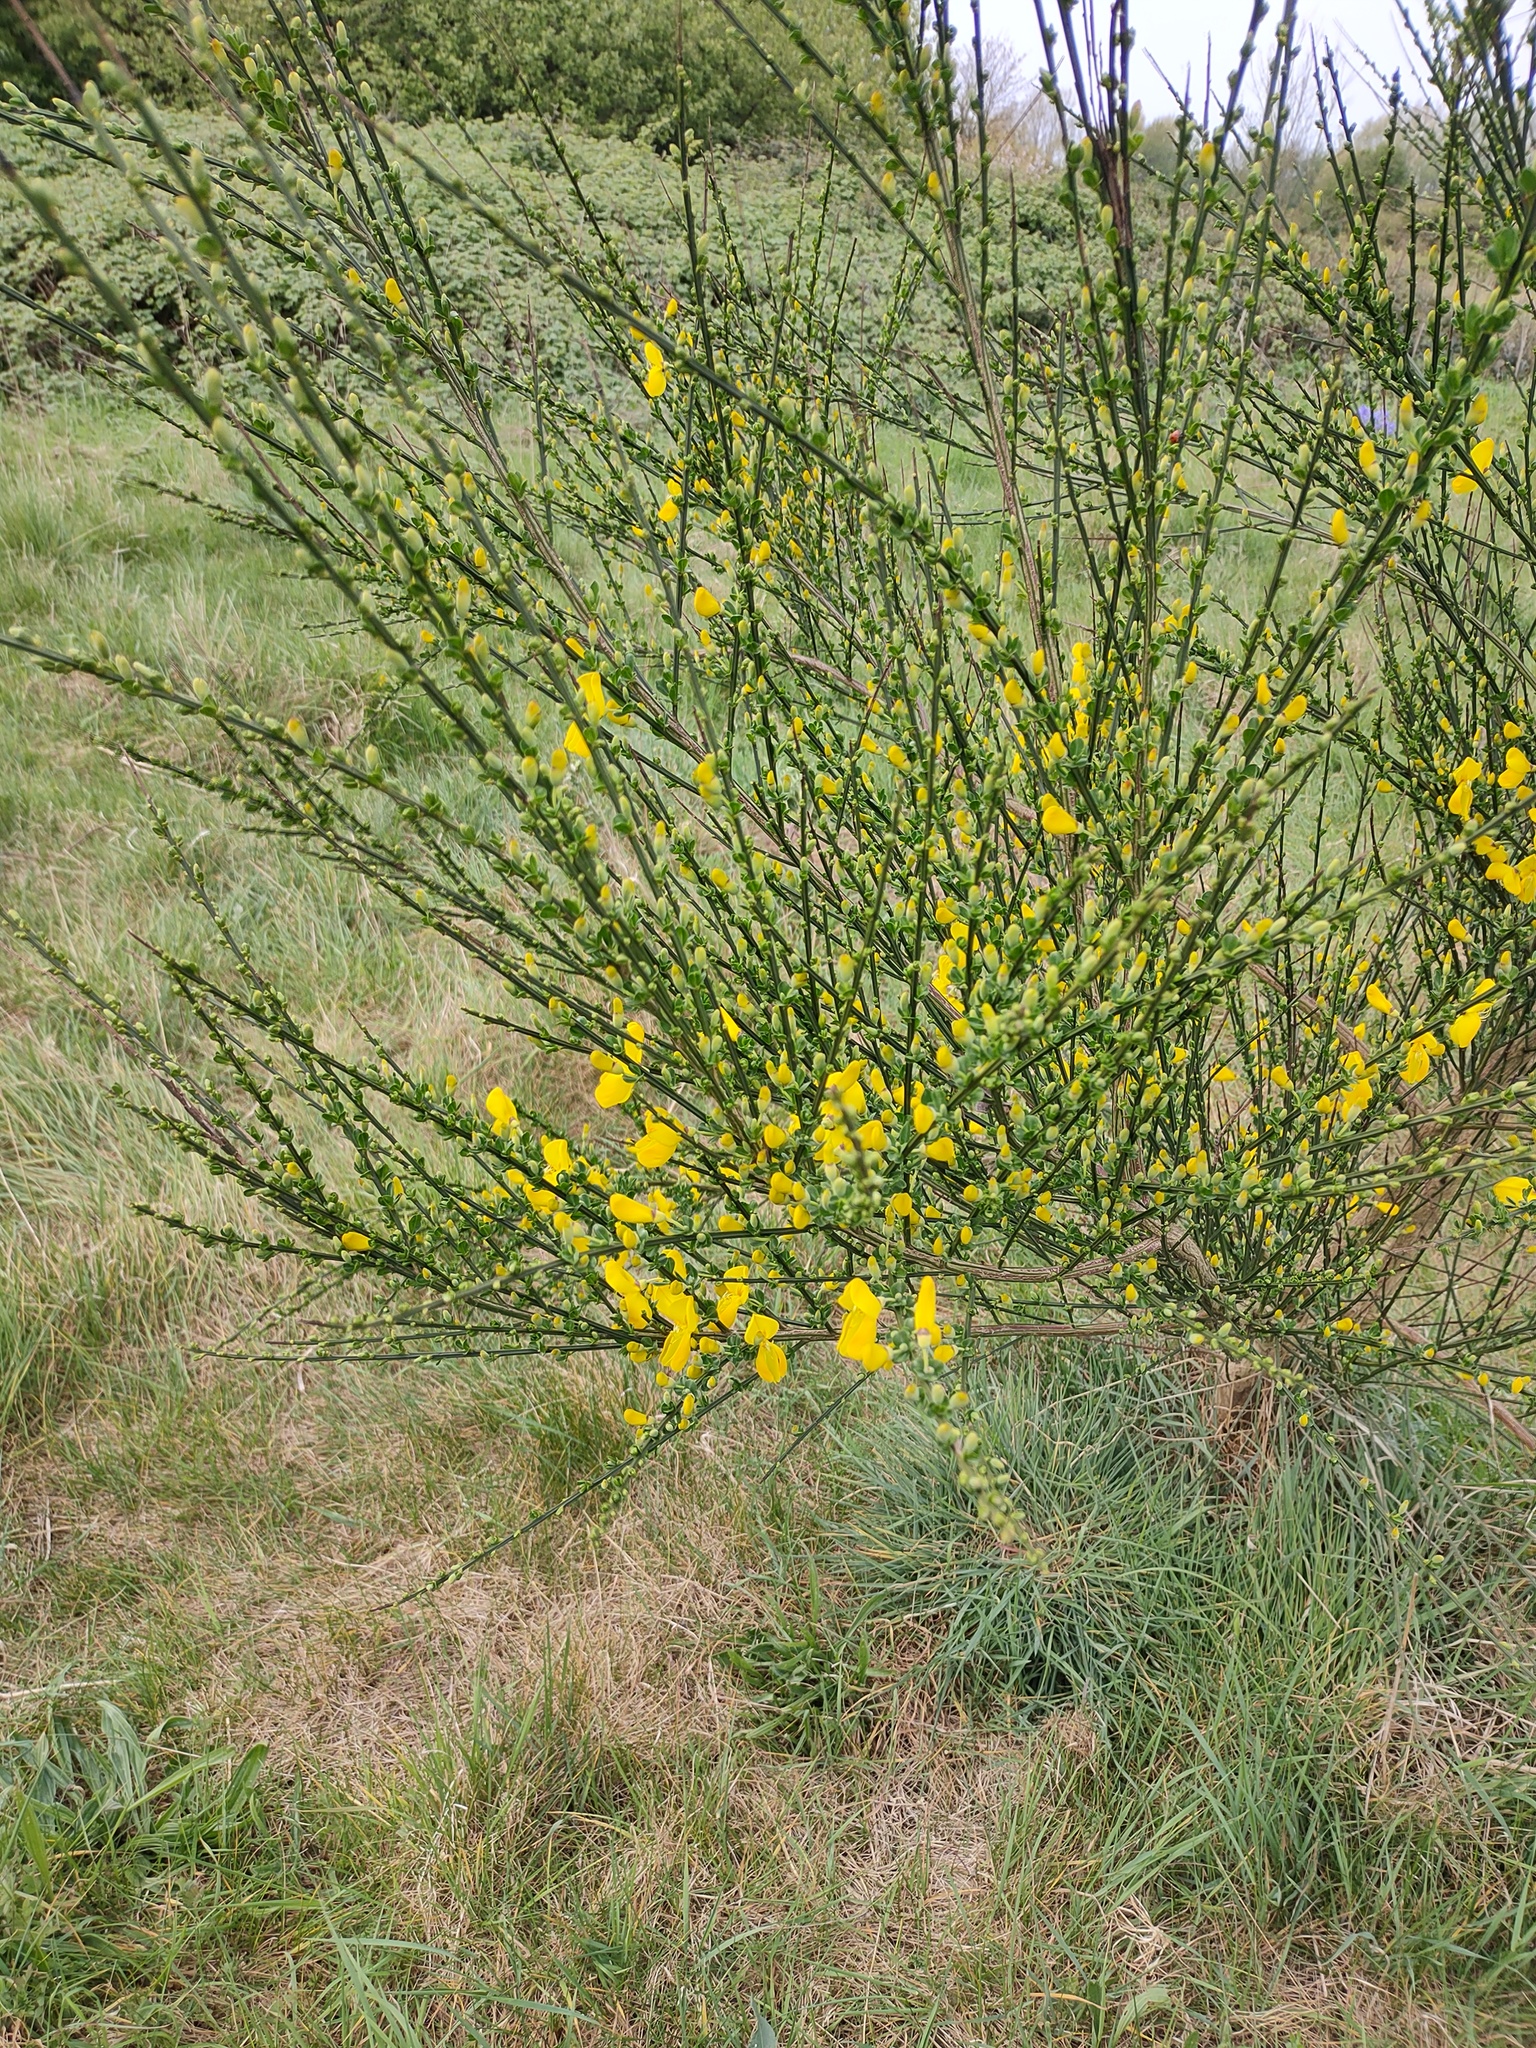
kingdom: Plantae
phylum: Tracheophyta
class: Magnoliopsida
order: Fabales
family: Fabaceae
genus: Cytisus
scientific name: Cytisus scoparius
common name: Scotch broom
